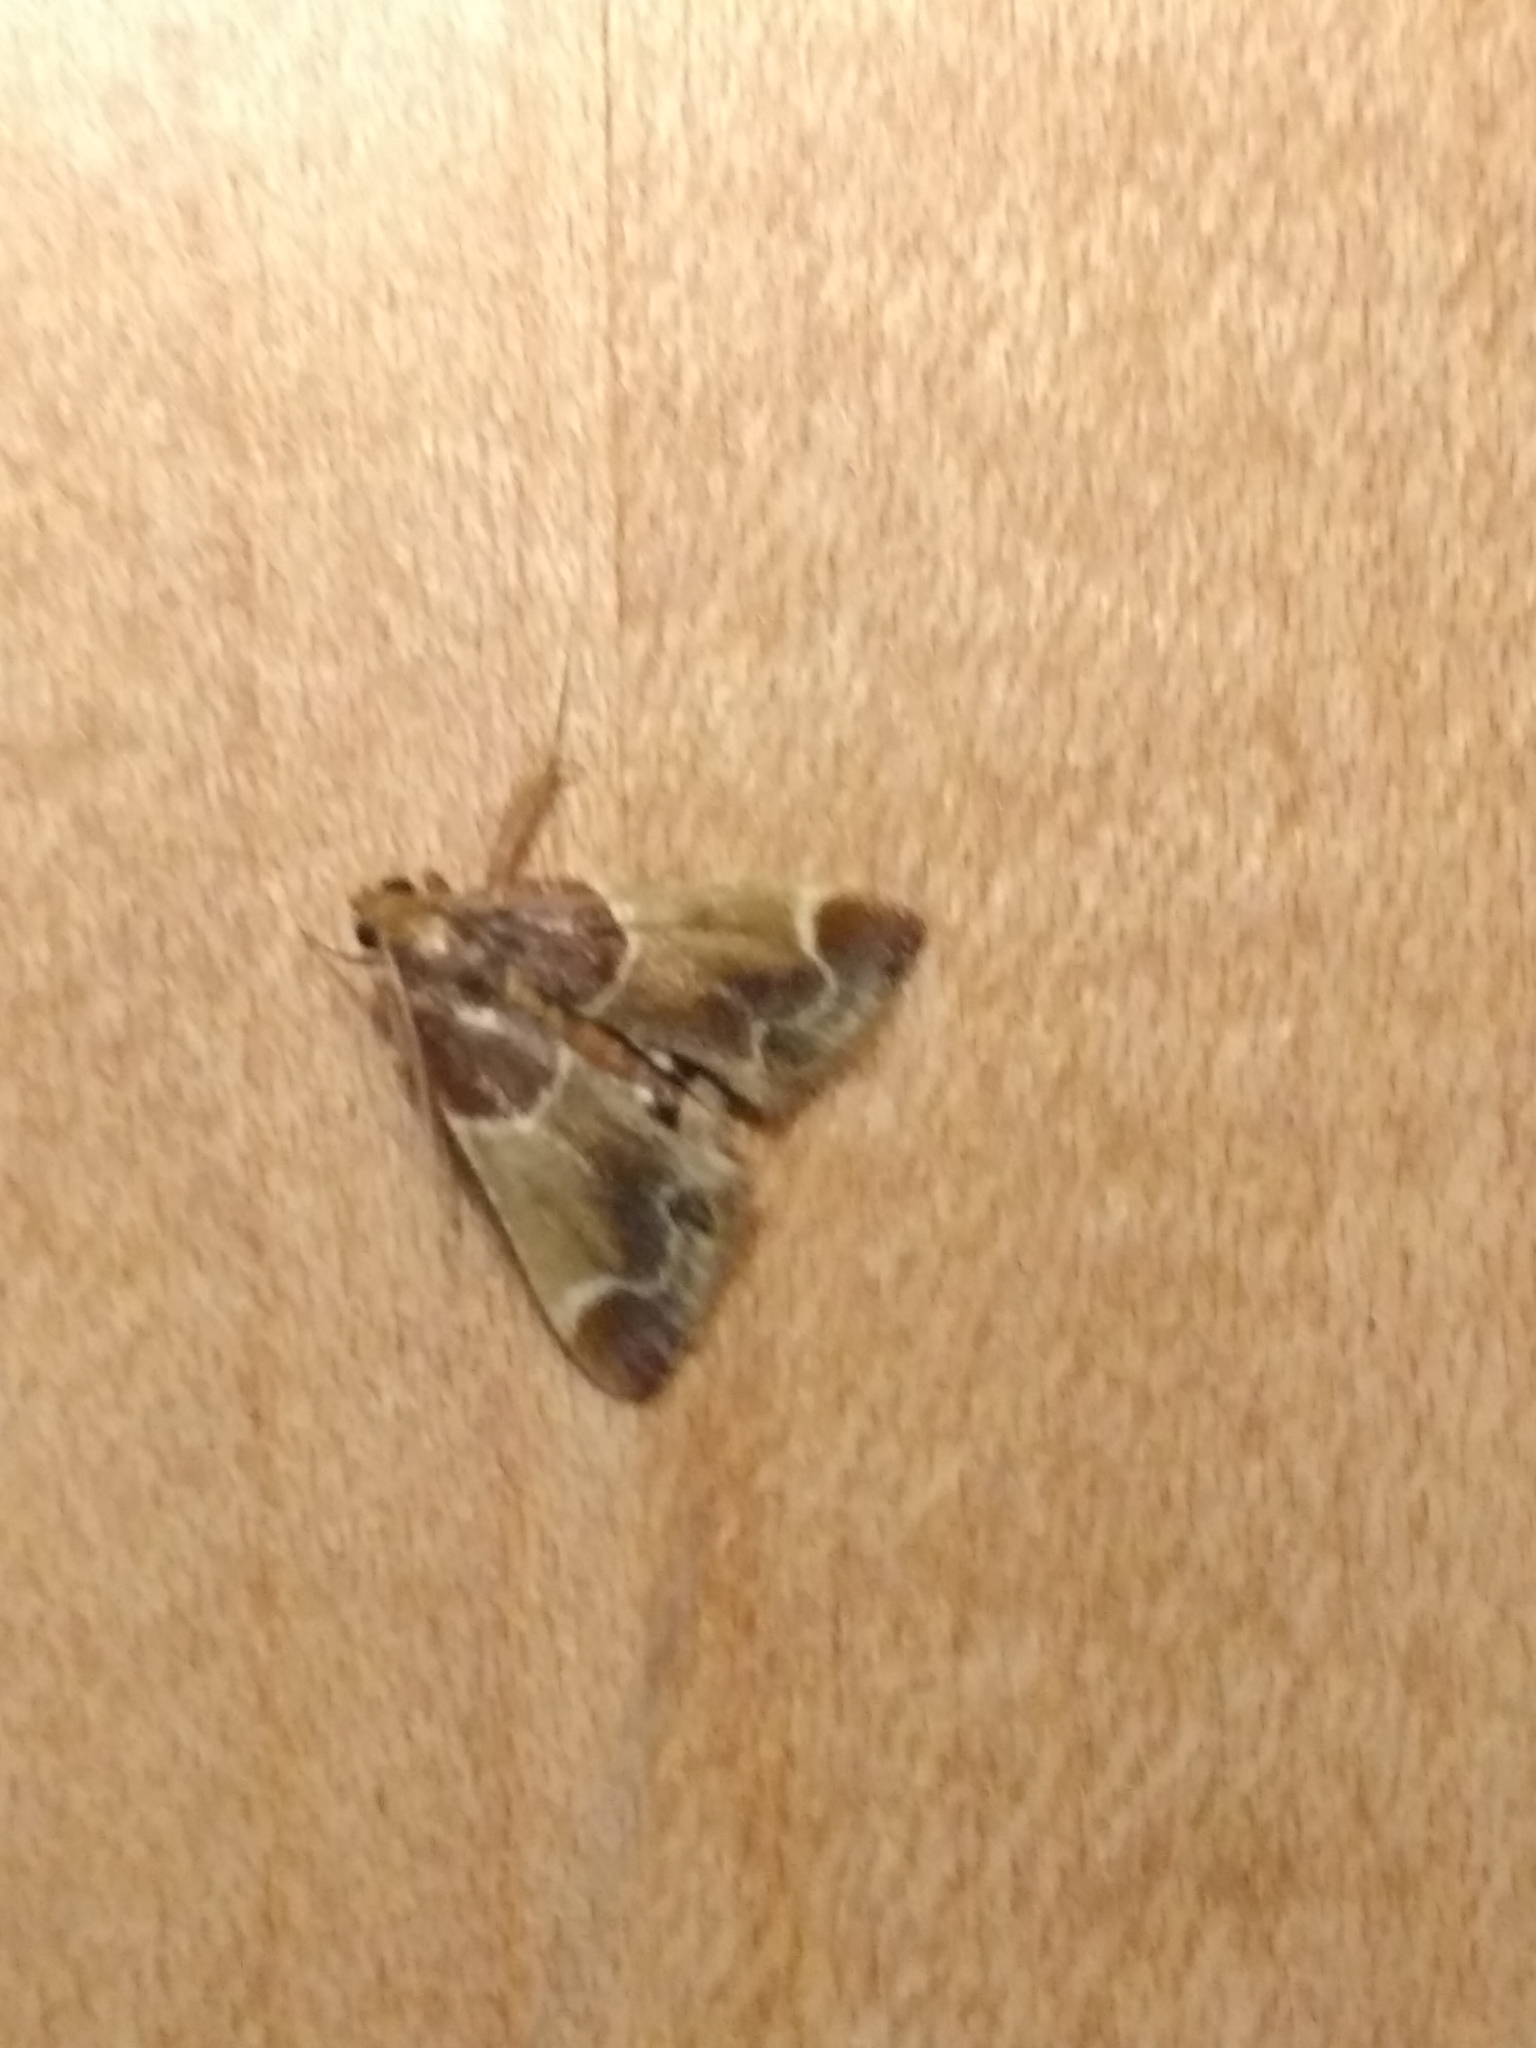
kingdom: Animalia
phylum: Arthropoda
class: Insecta
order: Lepidoptera
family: Pyralidae
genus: Pyralis
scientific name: Pyralis farinalis
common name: Meal moth
